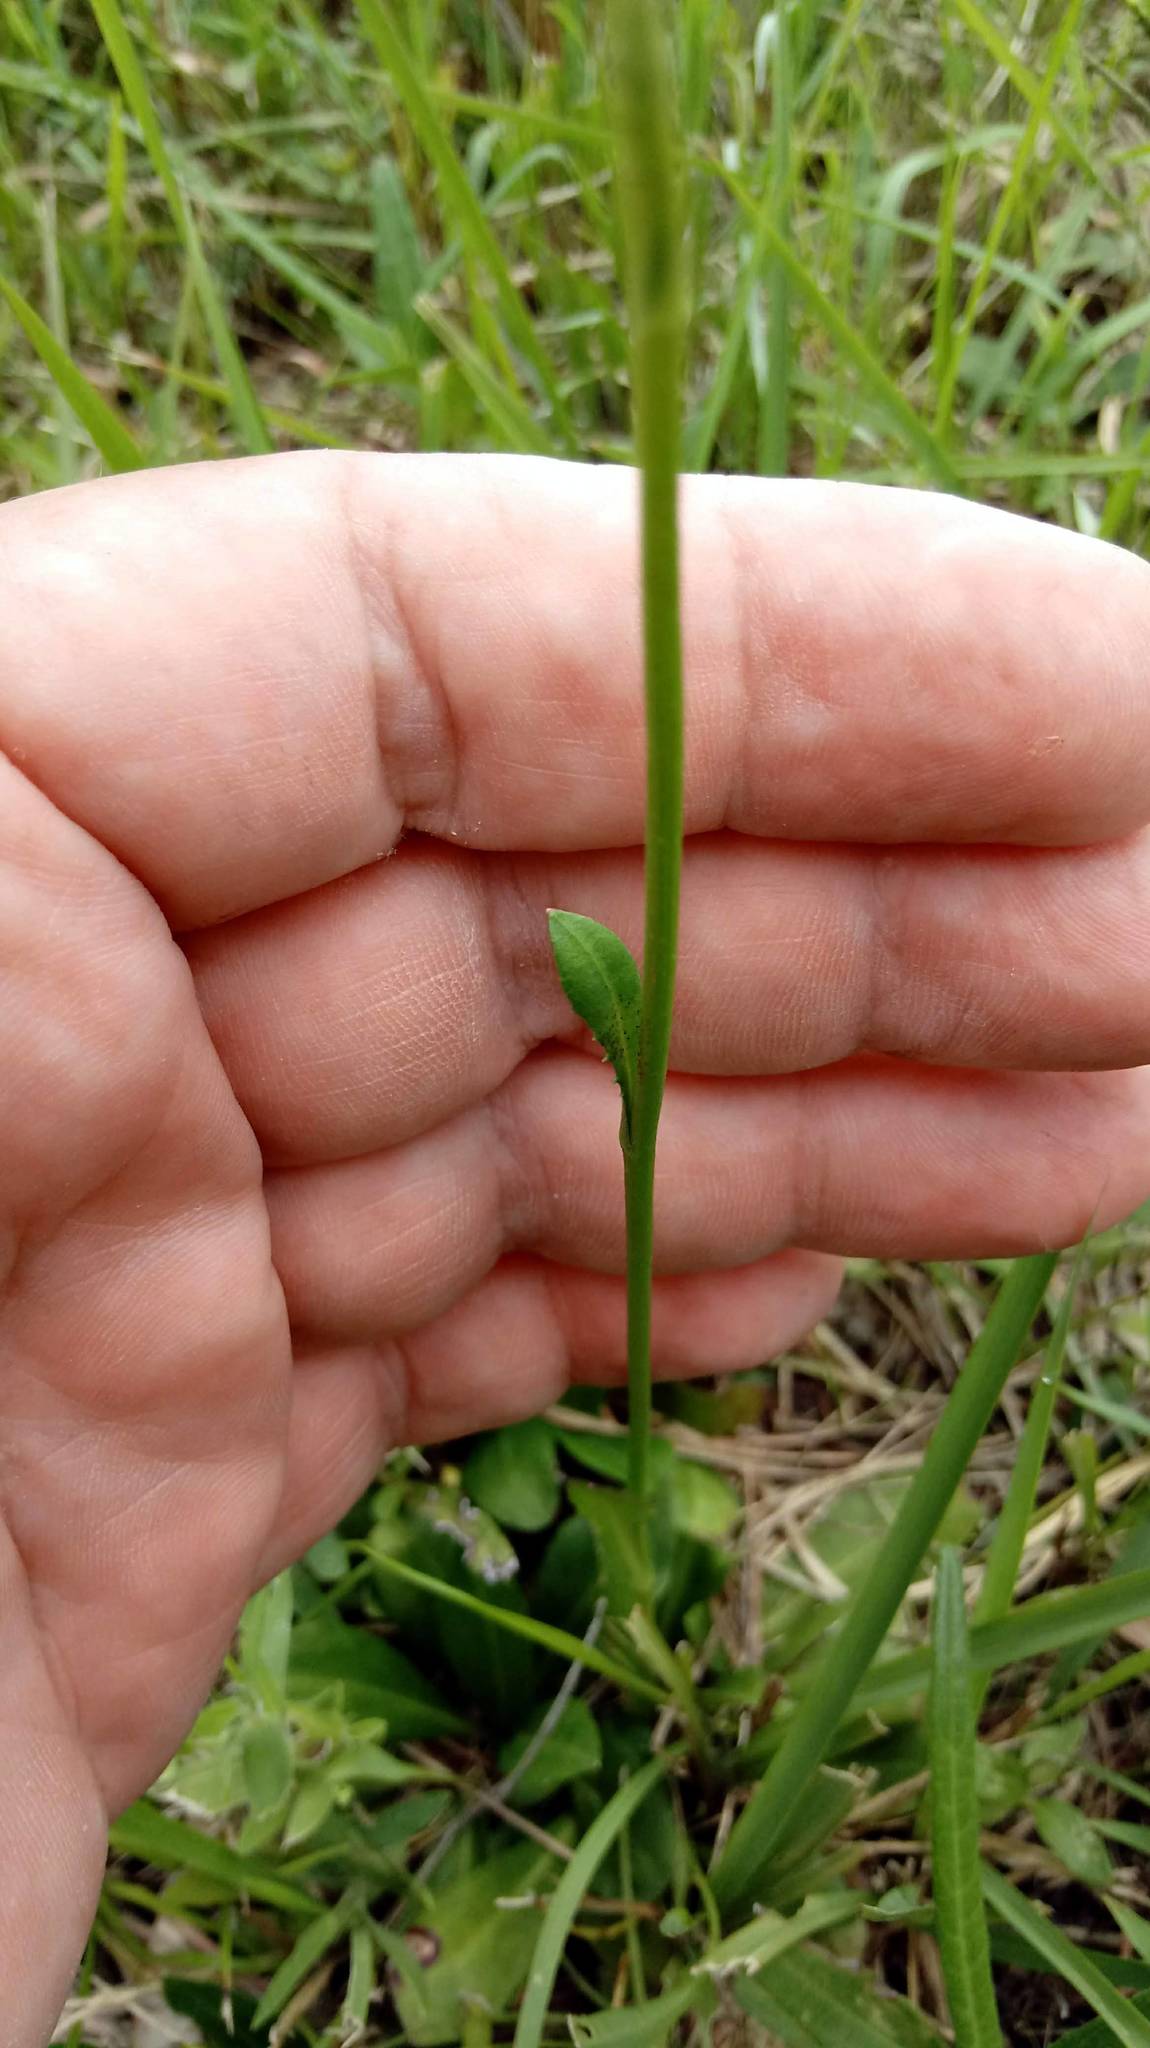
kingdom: Plantae
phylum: Tracheophyta
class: Magnoliopsida
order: Asterales
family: Asteraceae
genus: Erigeron
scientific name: Erigeron strigosus
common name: Common eastern fleabane
